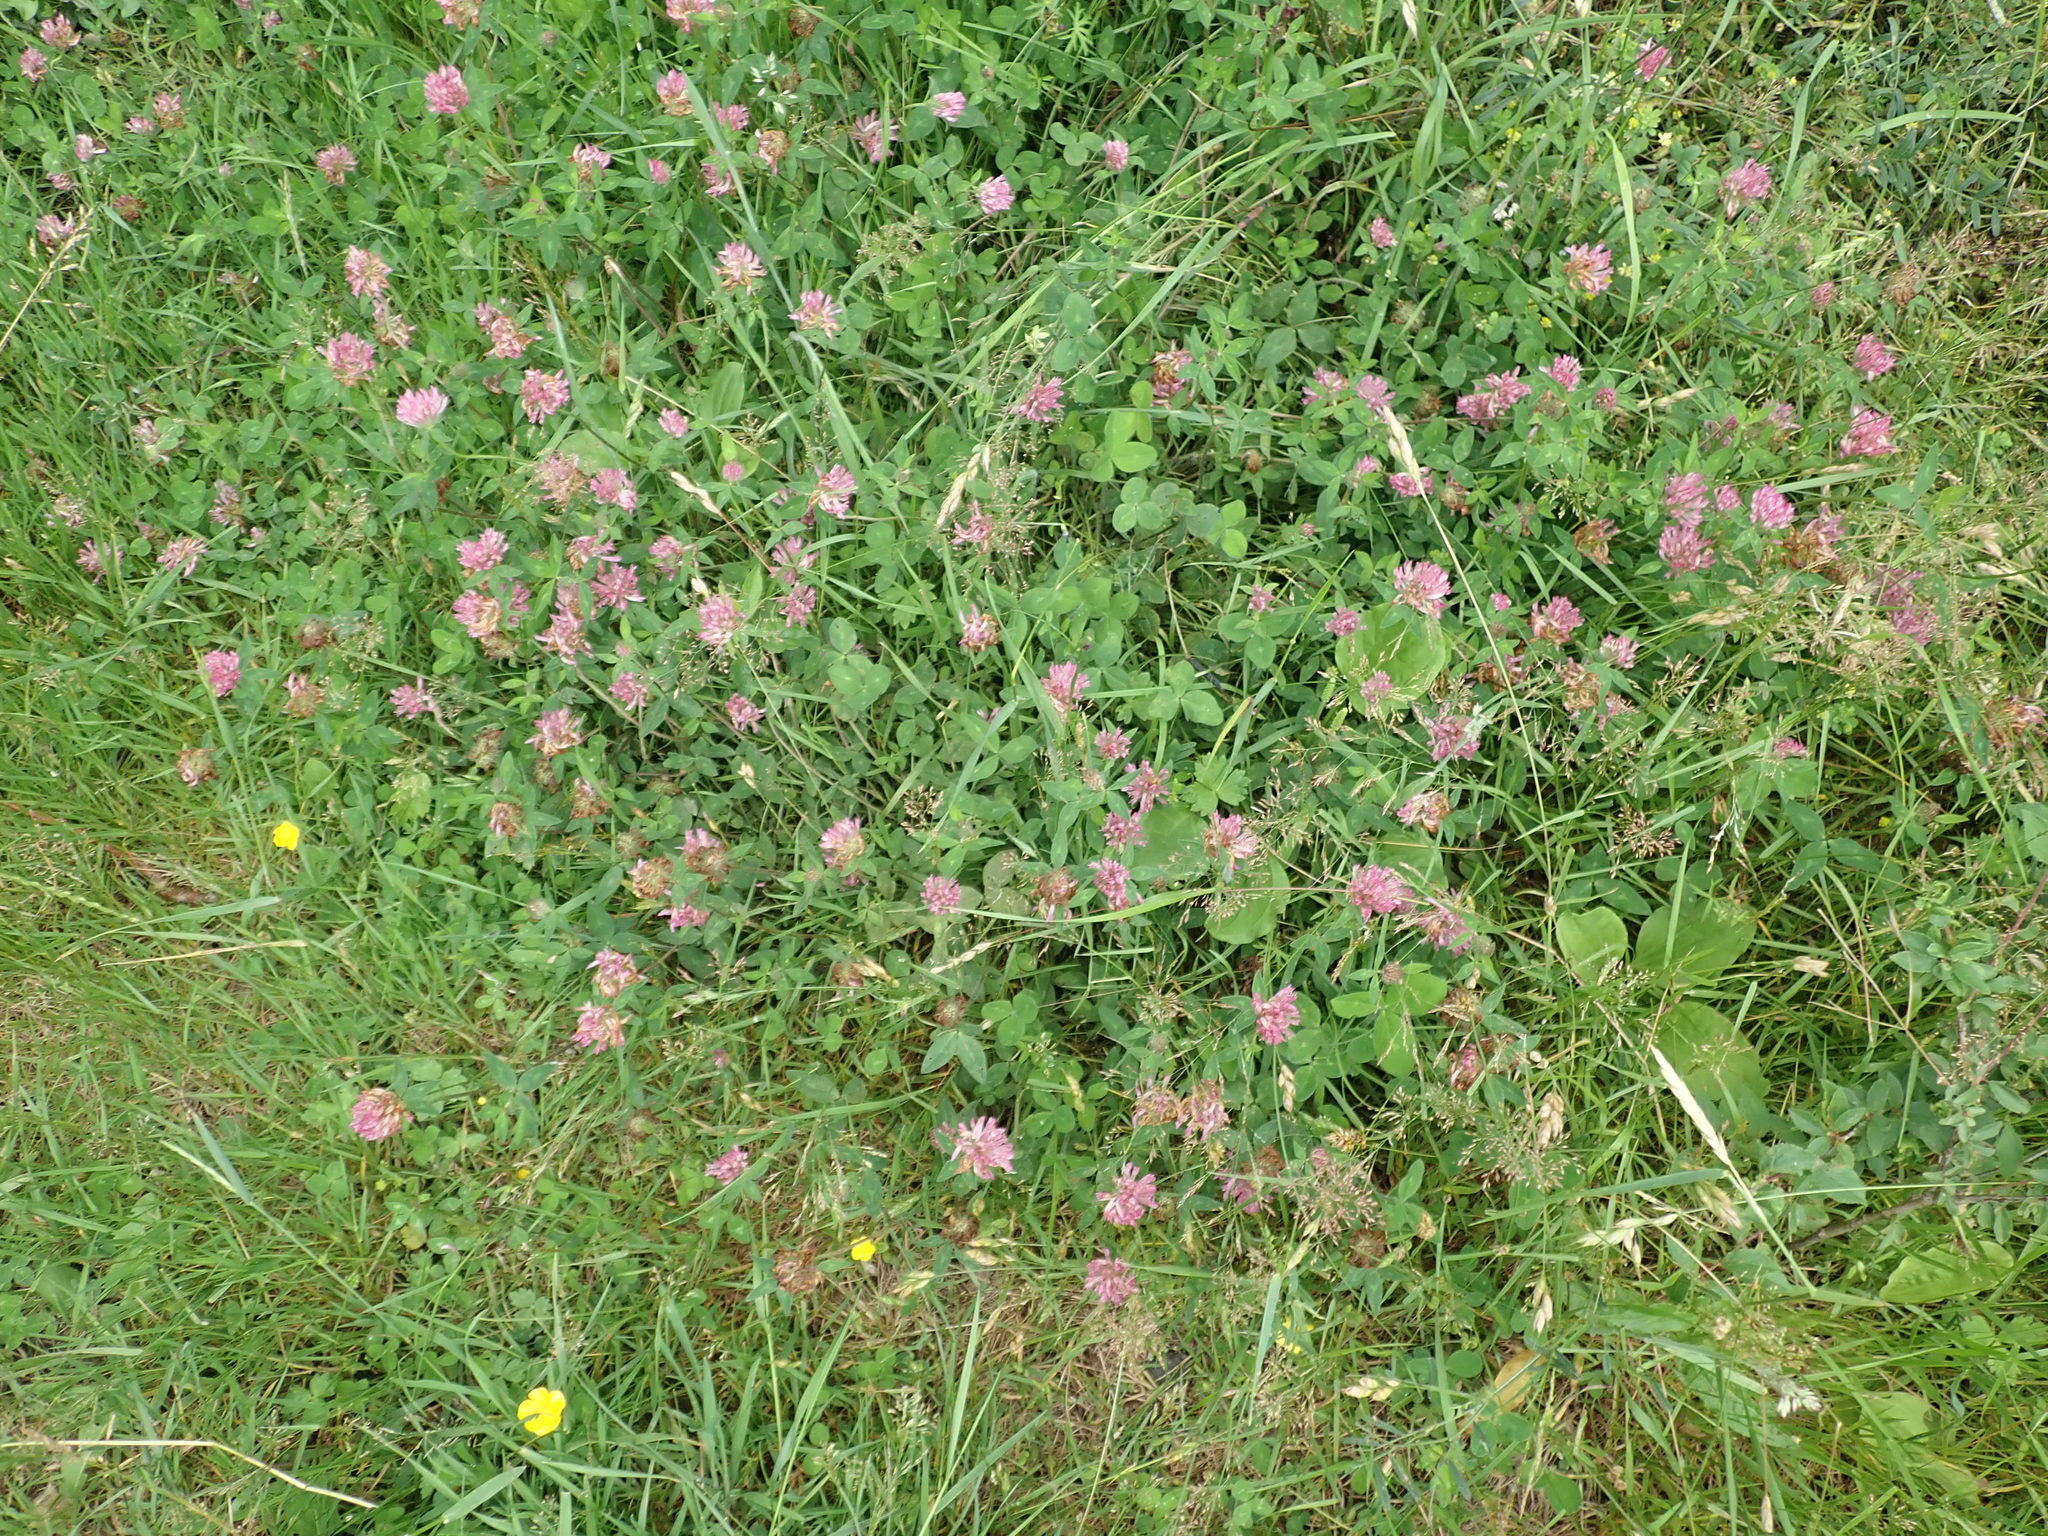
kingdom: Plantae
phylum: Tracheophyta
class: Magnoliopsida
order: Fabales
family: Fabaceae
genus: Trifolium
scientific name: Trifolium pratense
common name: Red clover
